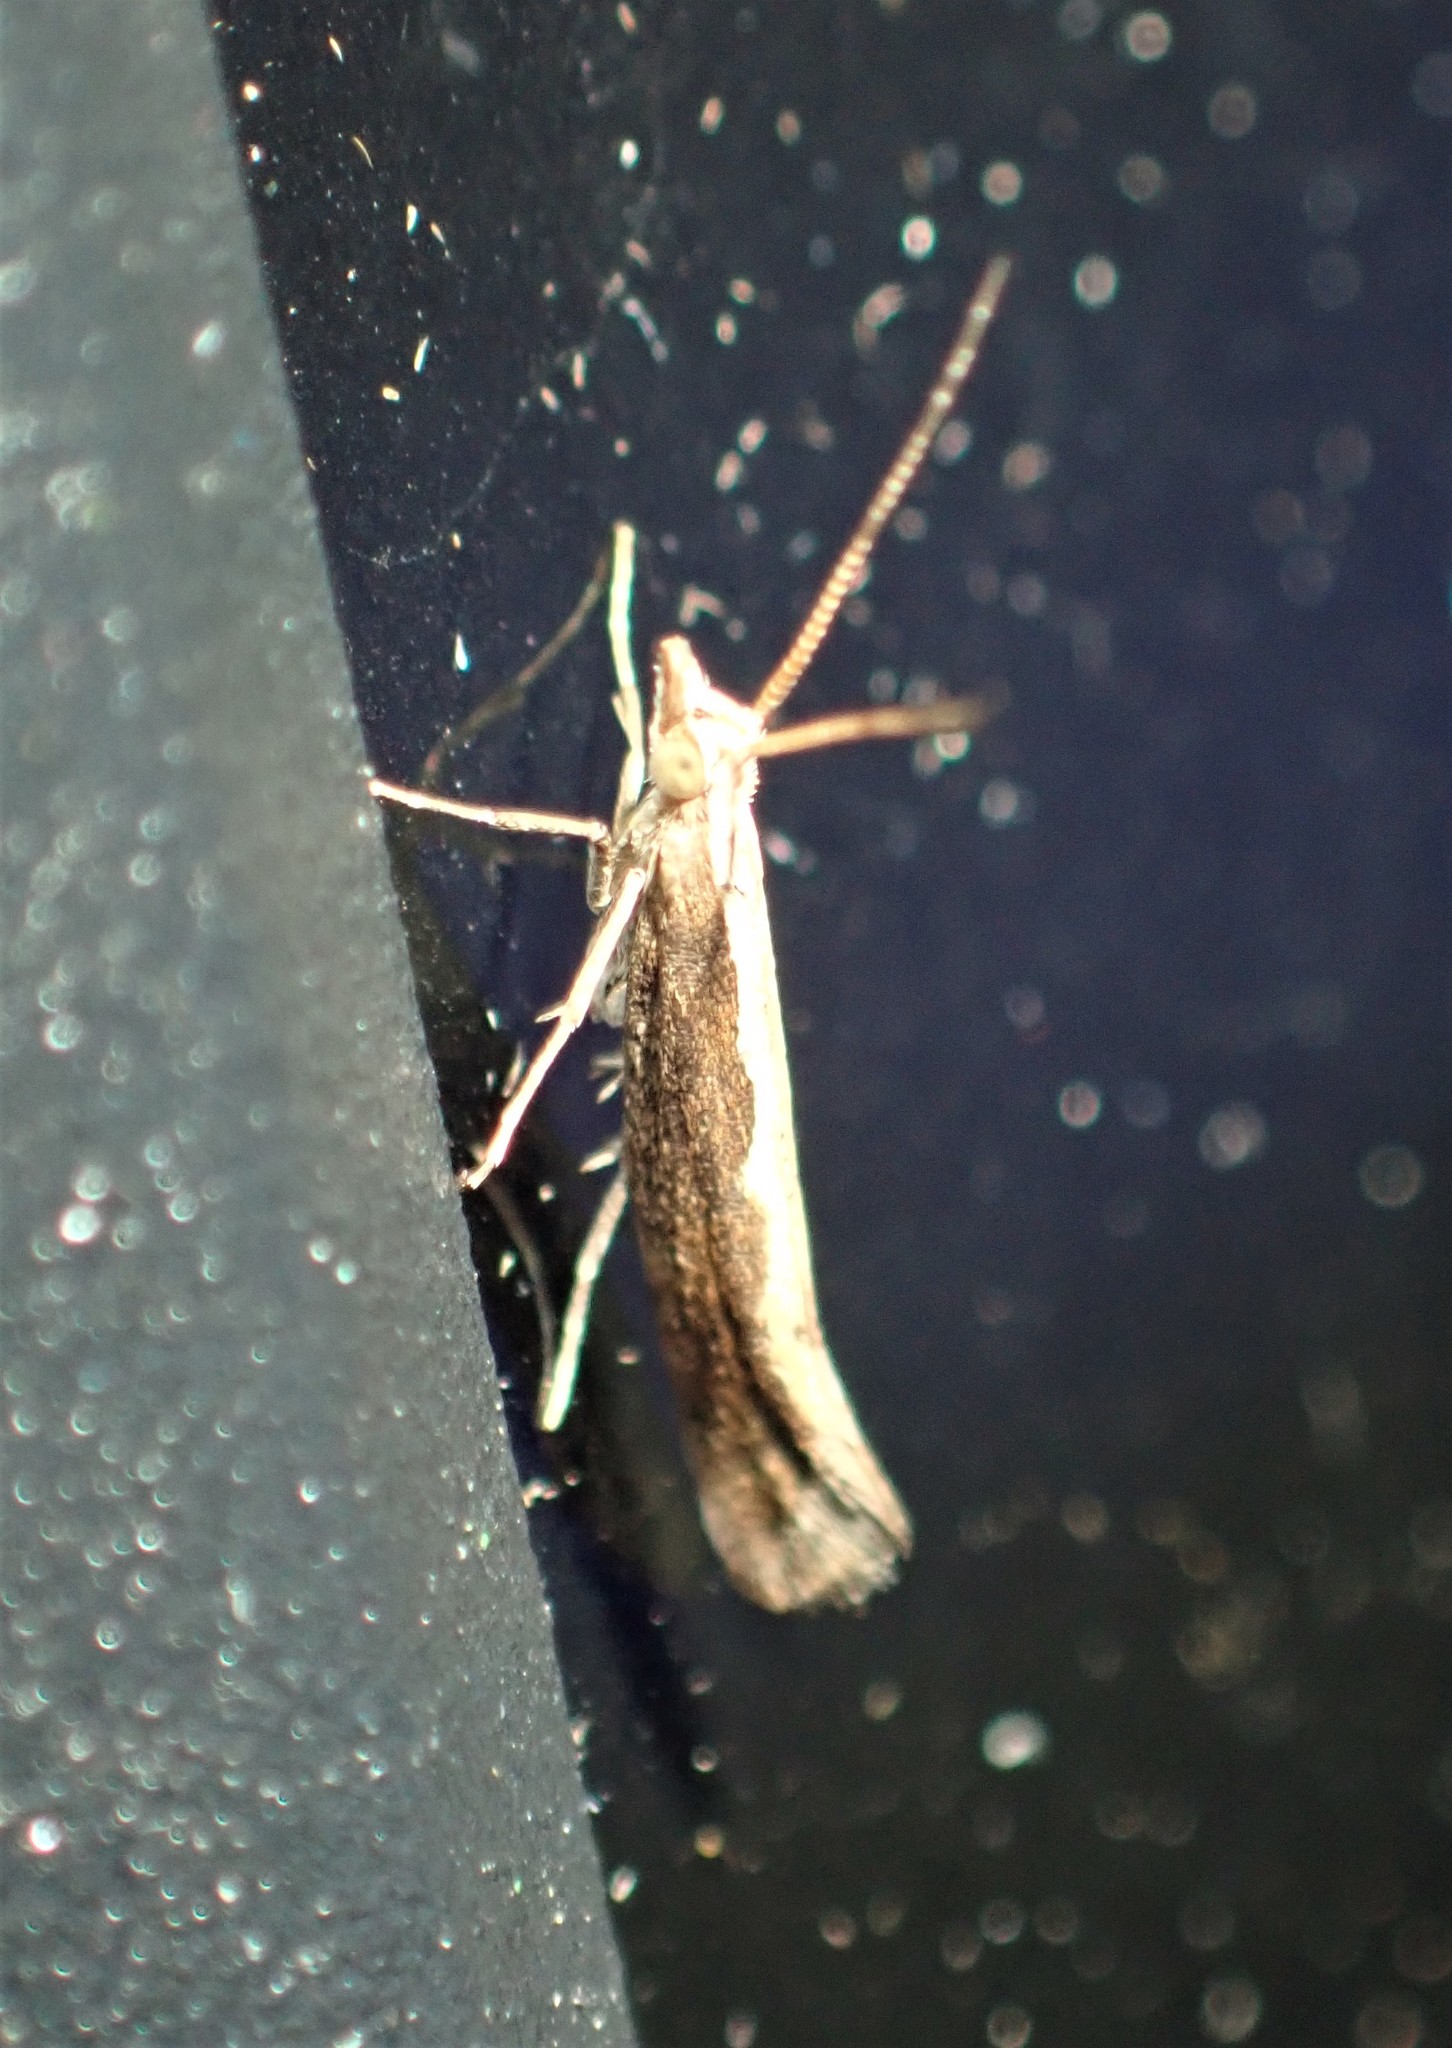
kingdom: Animalia
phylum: Arthropoda
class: Insecta
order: Lepidoptera
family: Plutellidae
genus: Plutella
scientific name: Plutella xylostella
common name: Diamond-back moth
